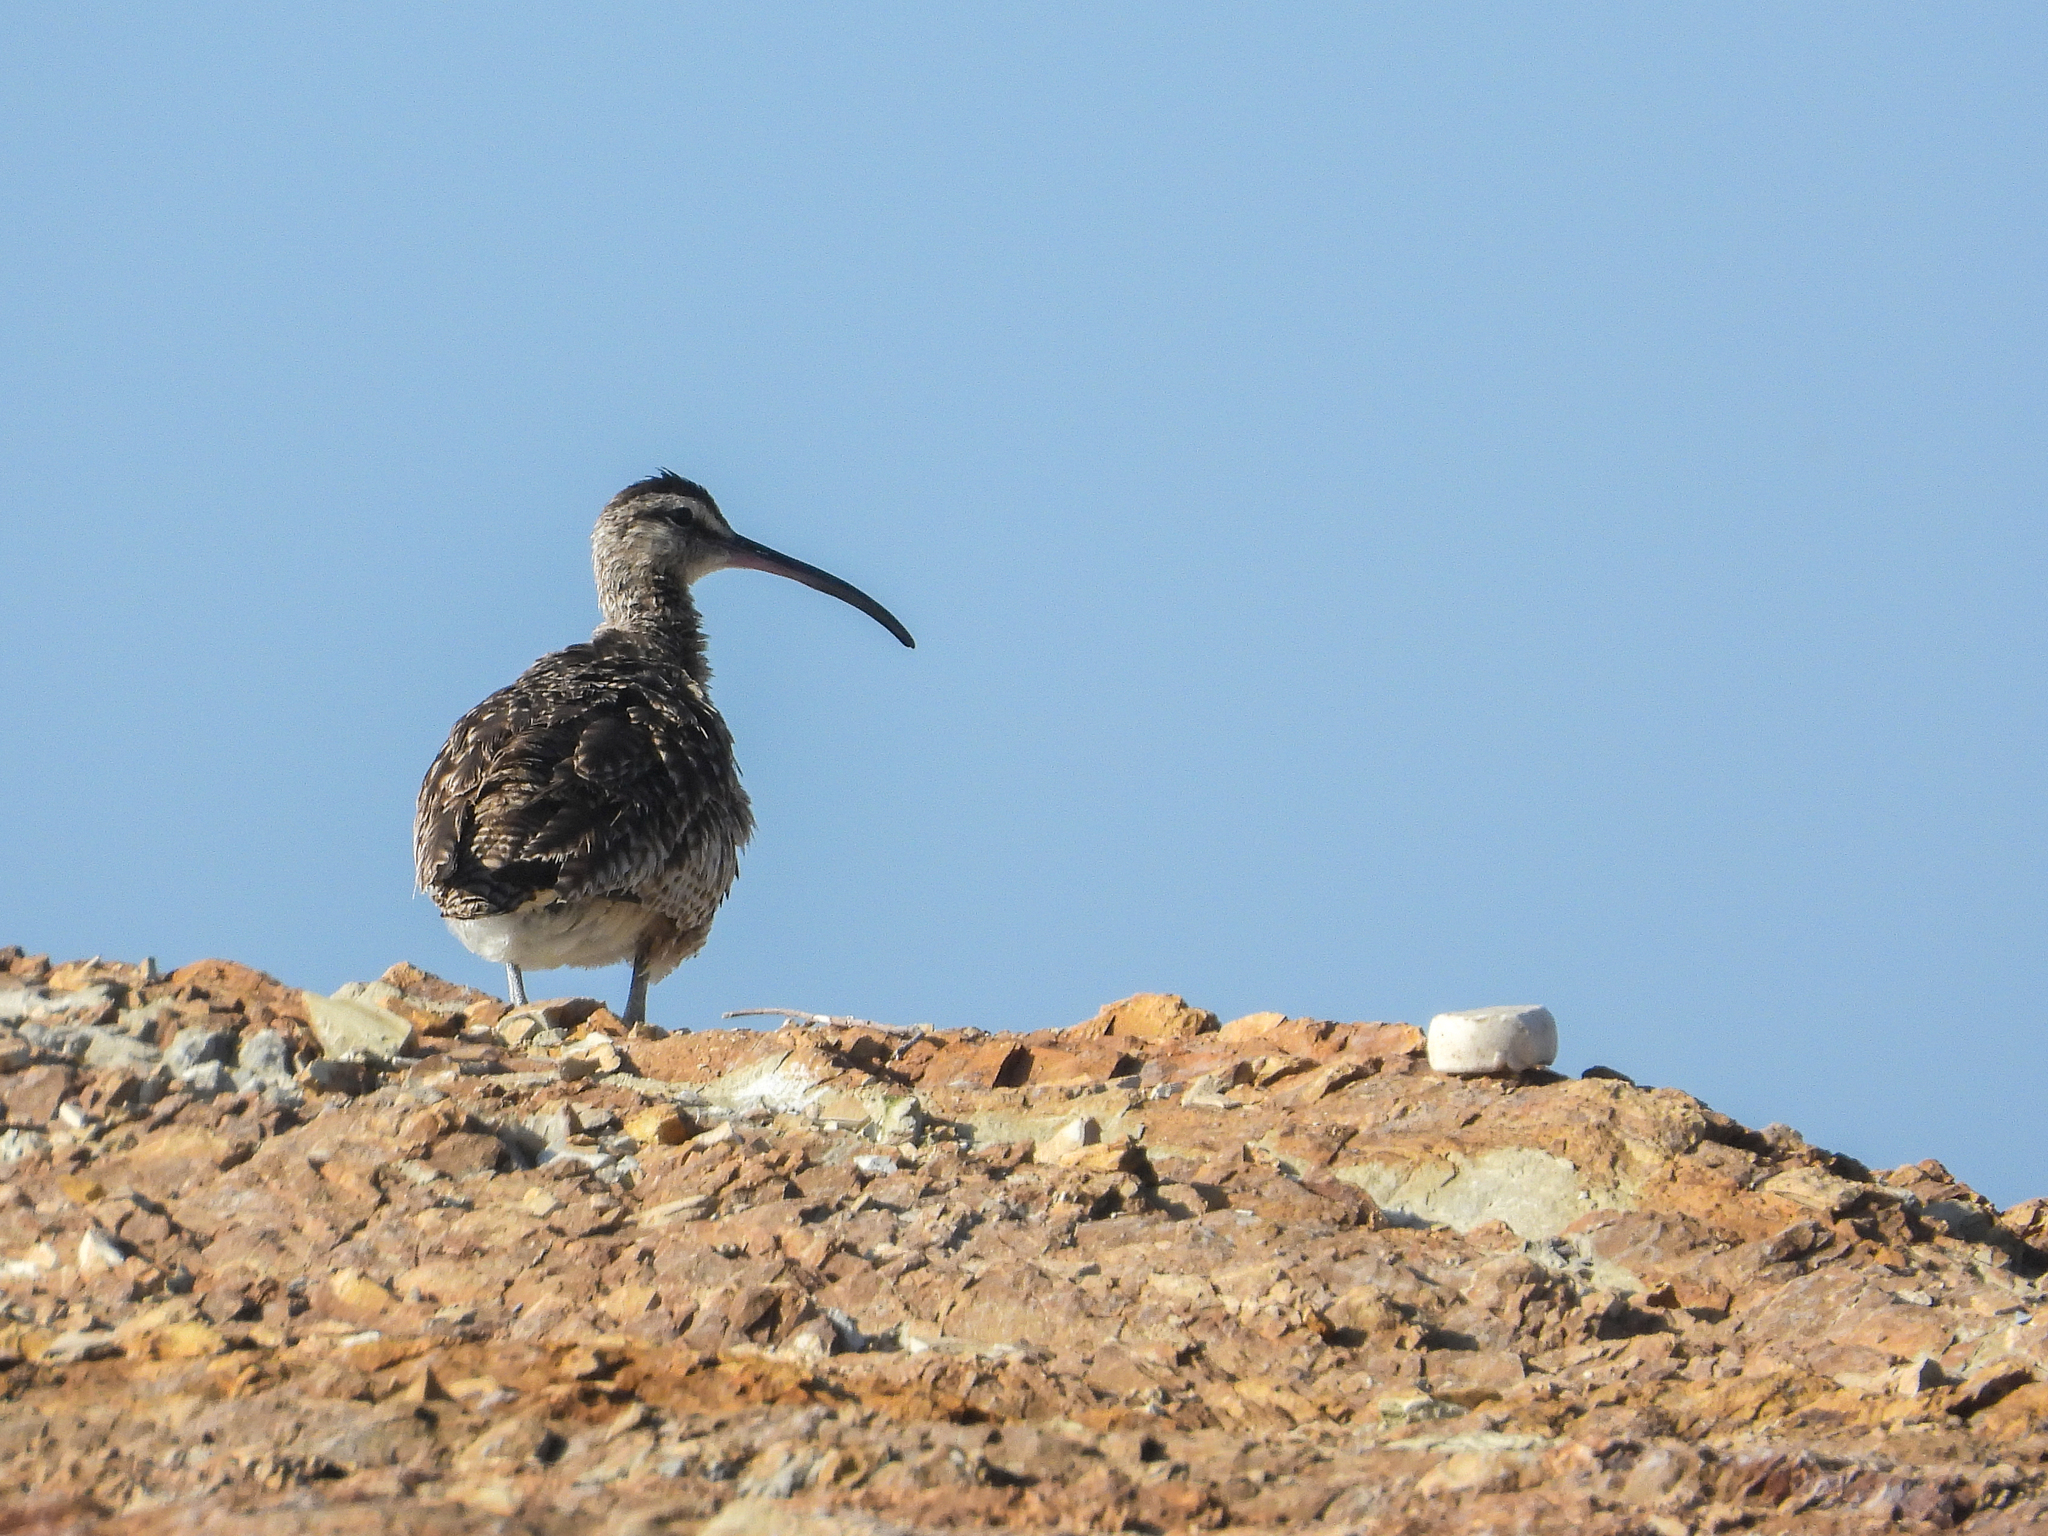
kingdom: Animalia
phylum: Chordata
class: Aves
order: Charadriiformes
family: Scolopacidae
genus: Numenius
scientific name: Numenius phaeopus
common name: Whimbrel
